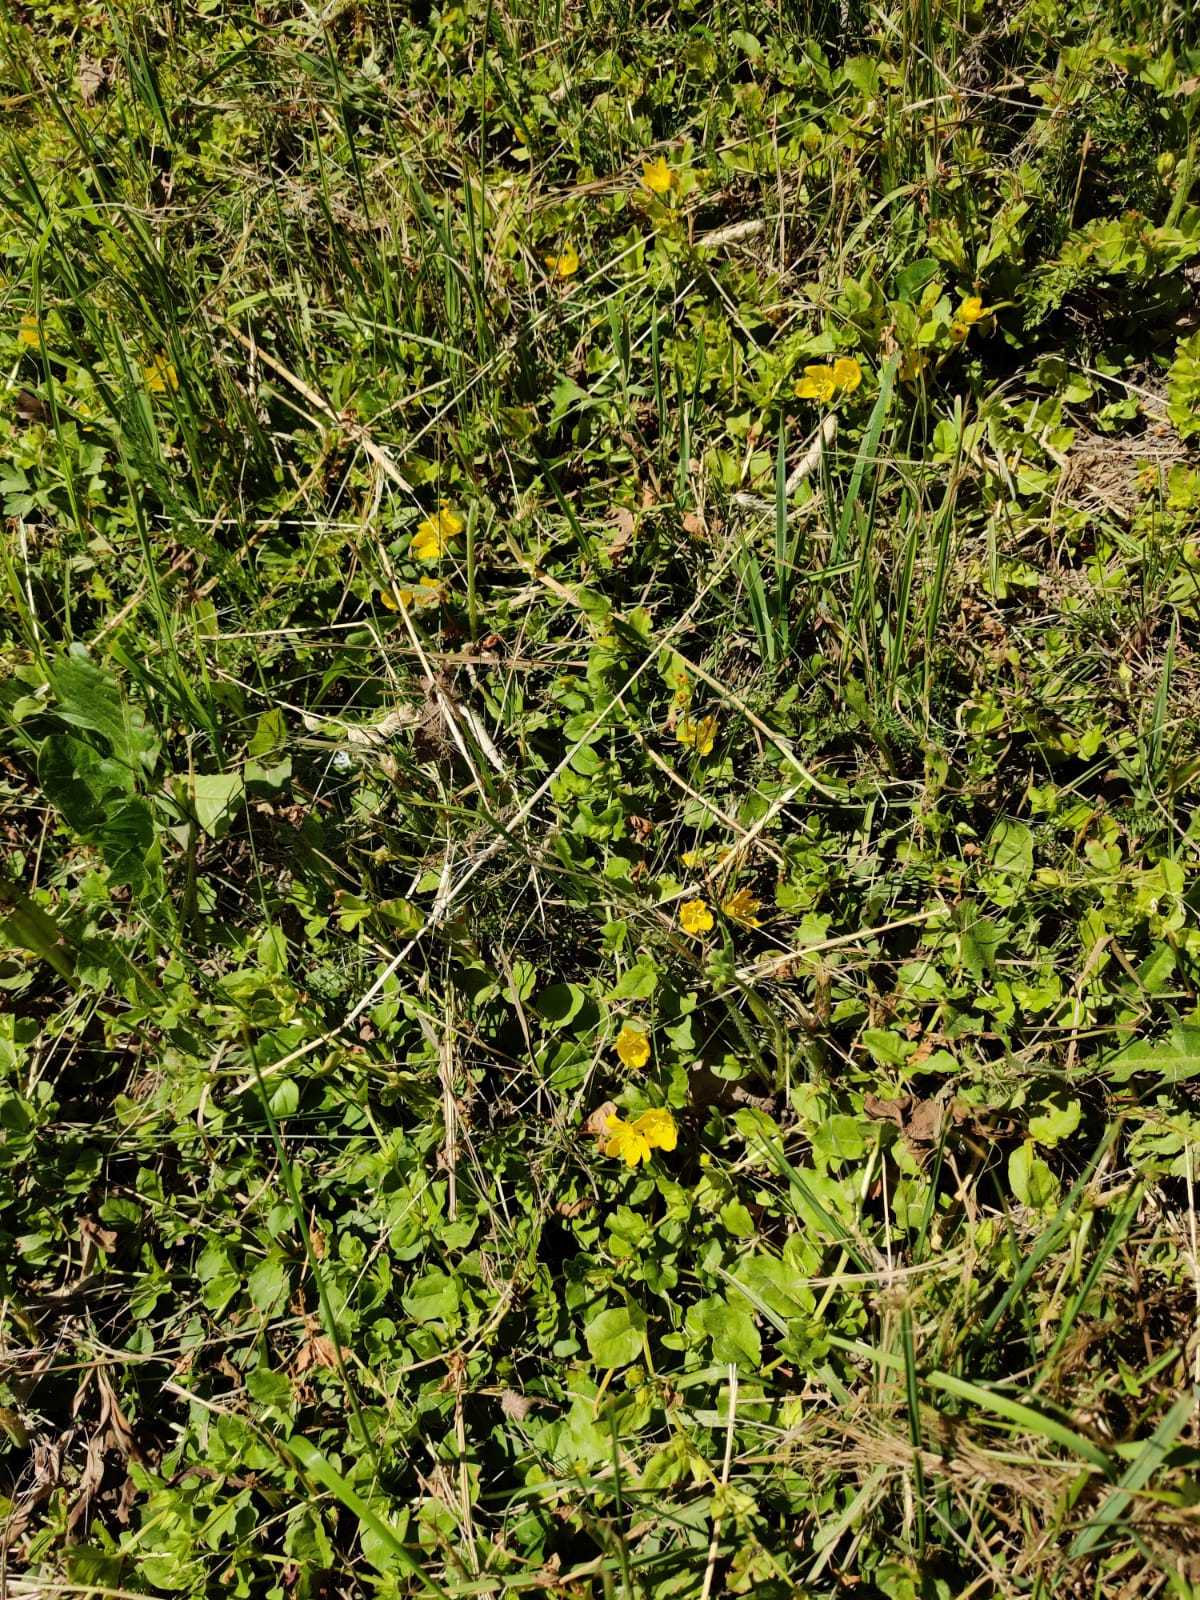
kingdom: Plantae
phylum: Tracheophyta
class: Magnoliopsida
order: Ericales
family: Primulaceae
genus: Lysimachia
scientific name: Lysimachia nummularia
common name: Moneywort
